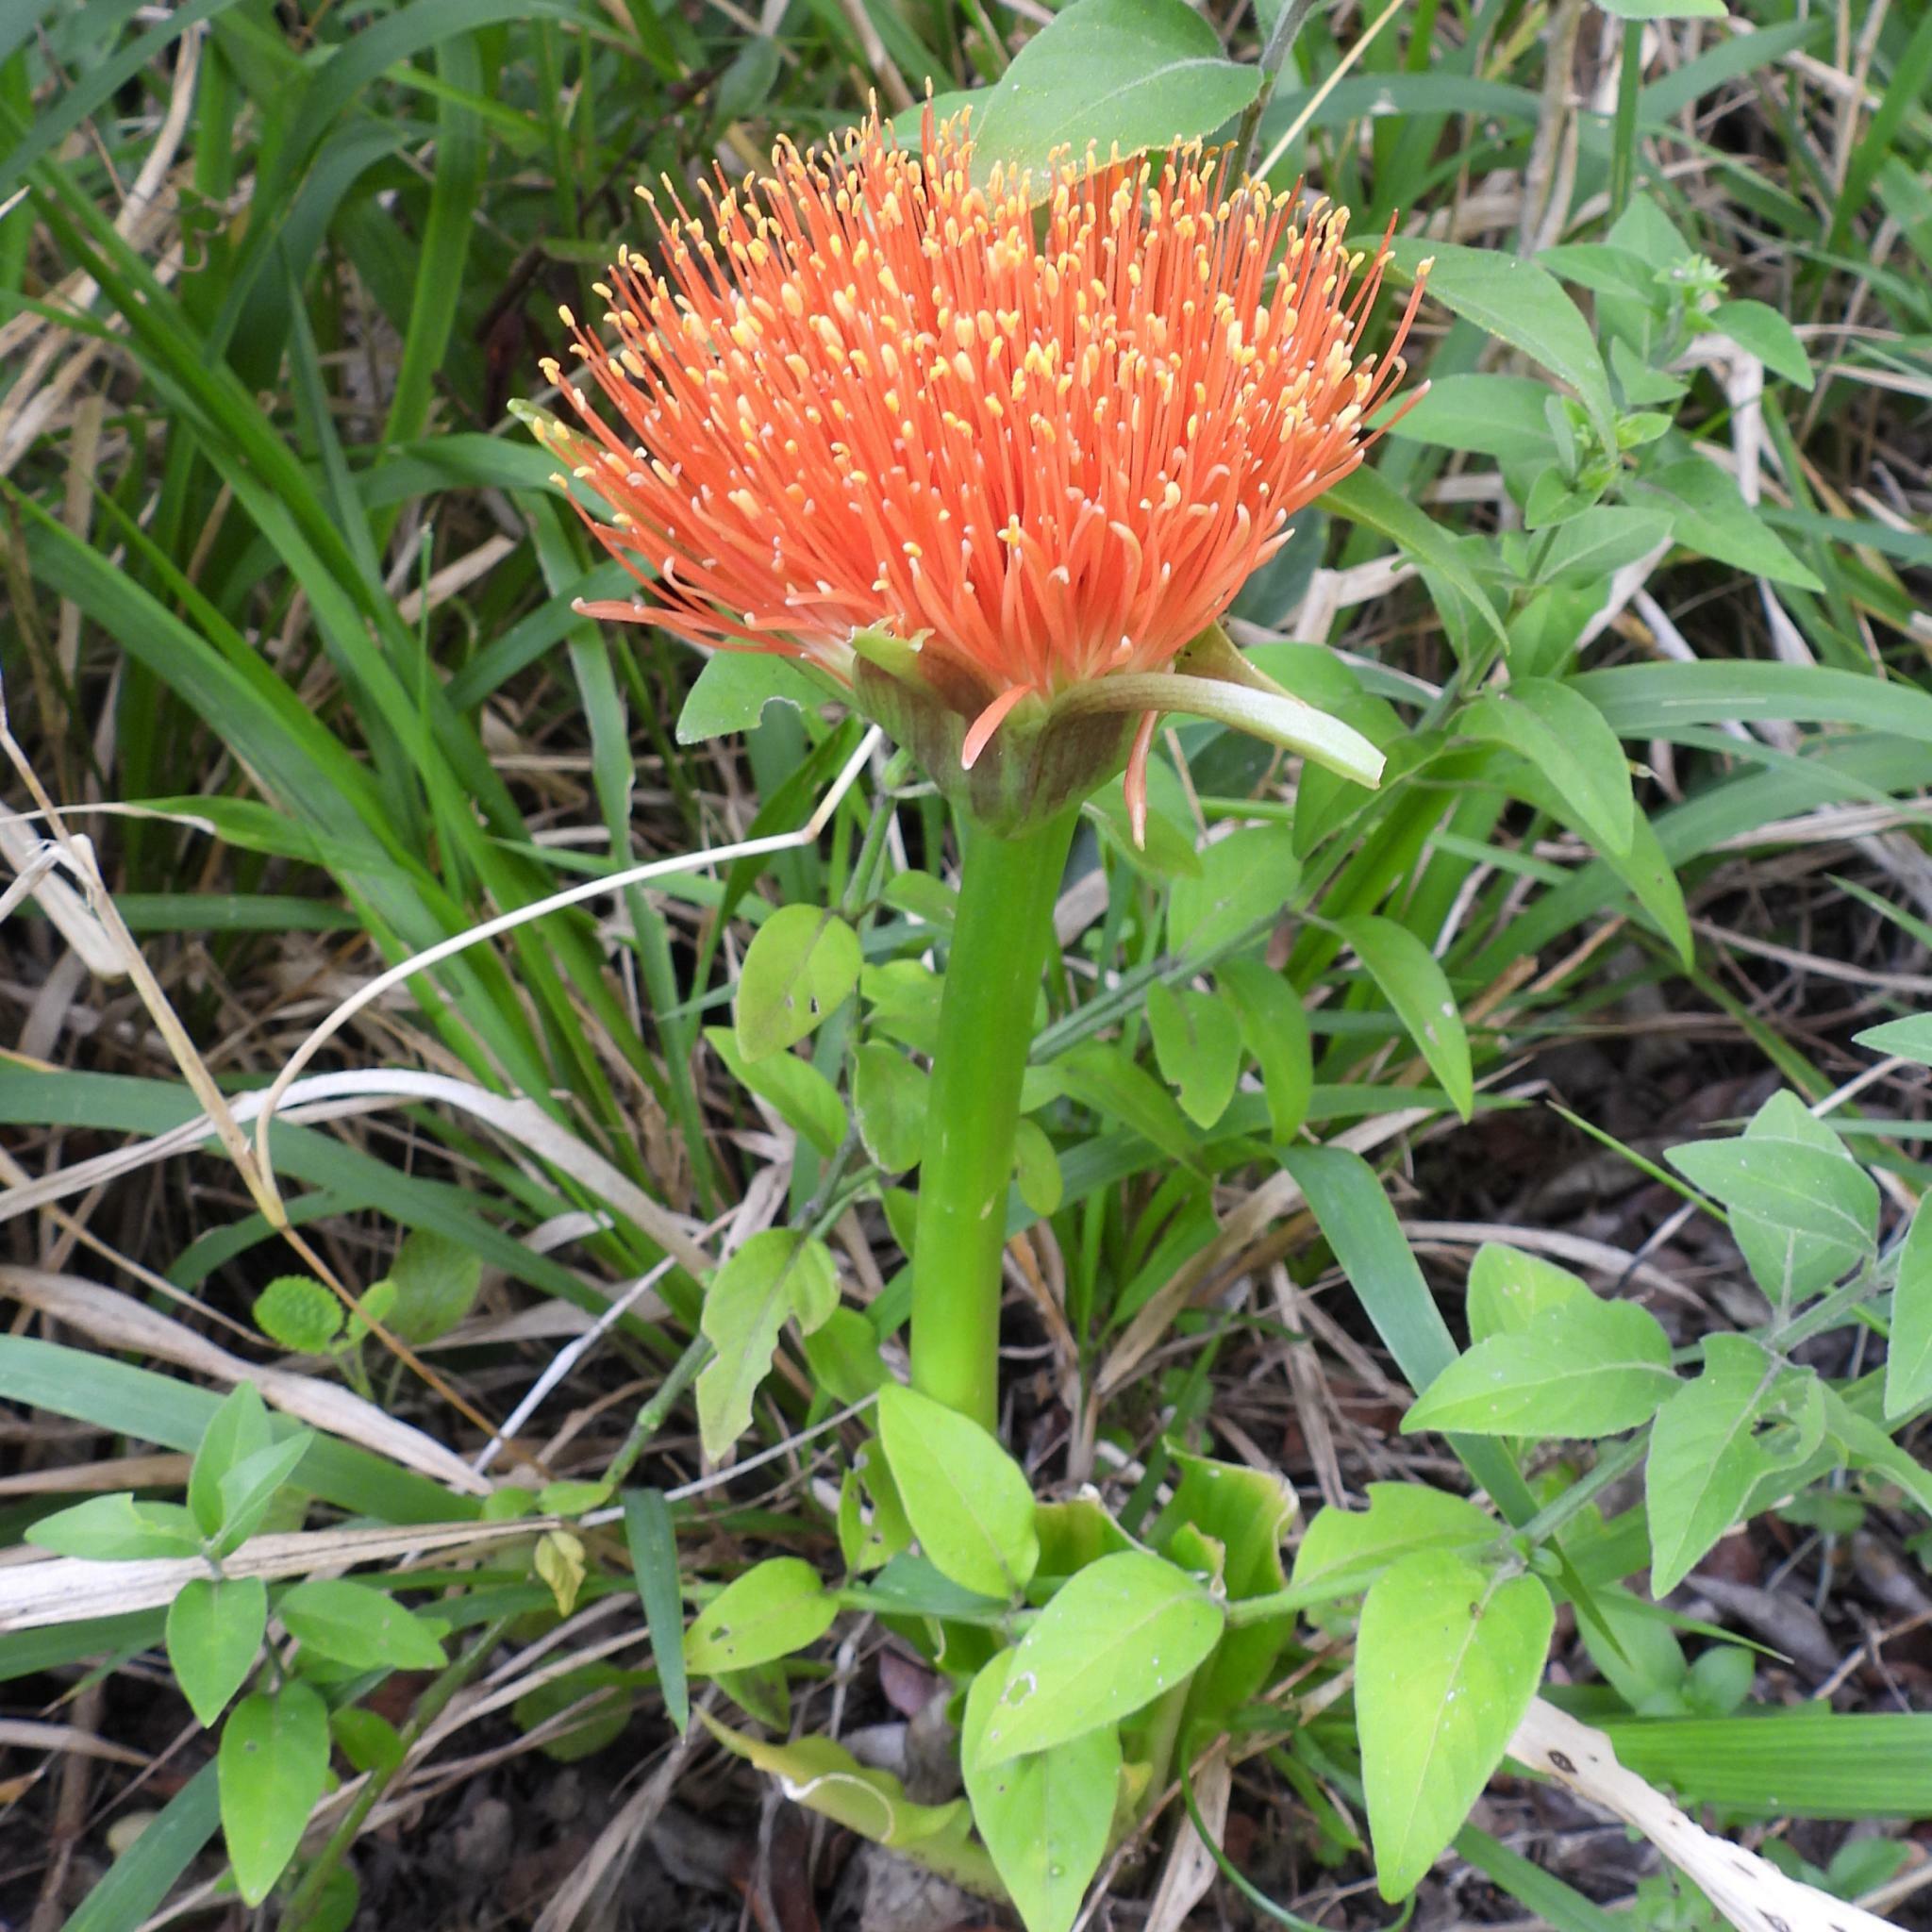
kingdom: Plantae
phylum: Tracheophyta
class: Liliopsida
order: Asparagales
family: Amaryllidaceae
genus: Scadoxus
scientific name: Scadoxus puniceus
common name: Royal-paintbrush
